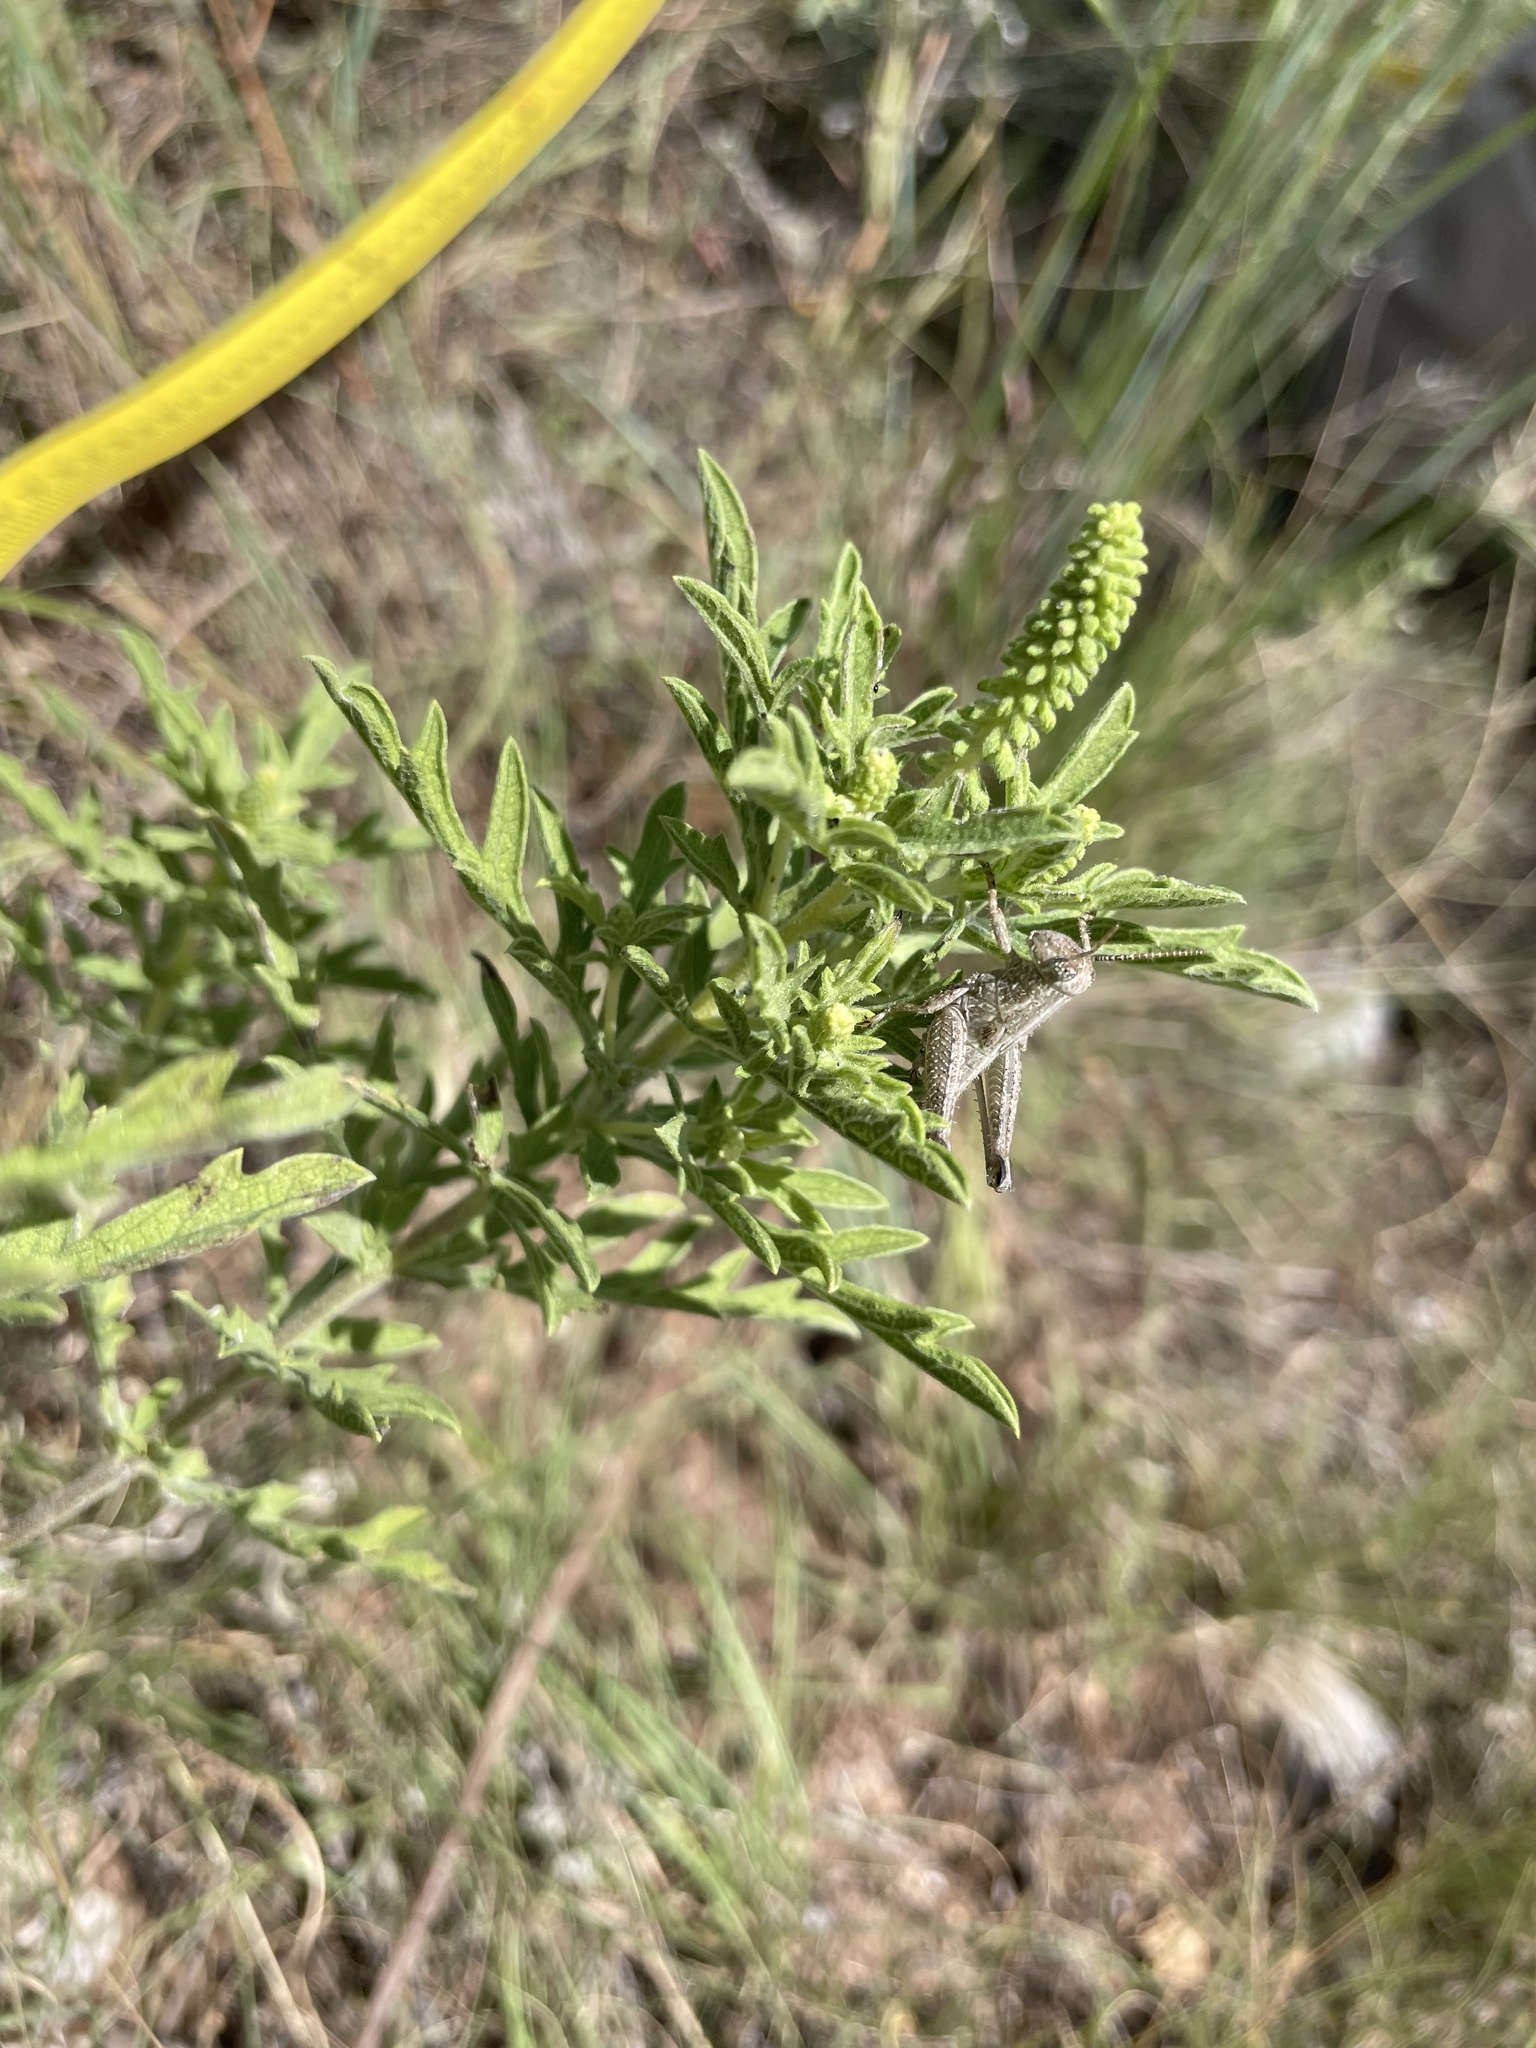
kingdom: Animalia
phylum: Arthropoda
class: Insecta
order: Orthoptera
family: Acrididae
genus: Campylacantha
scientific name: Campylacantha olivacea
